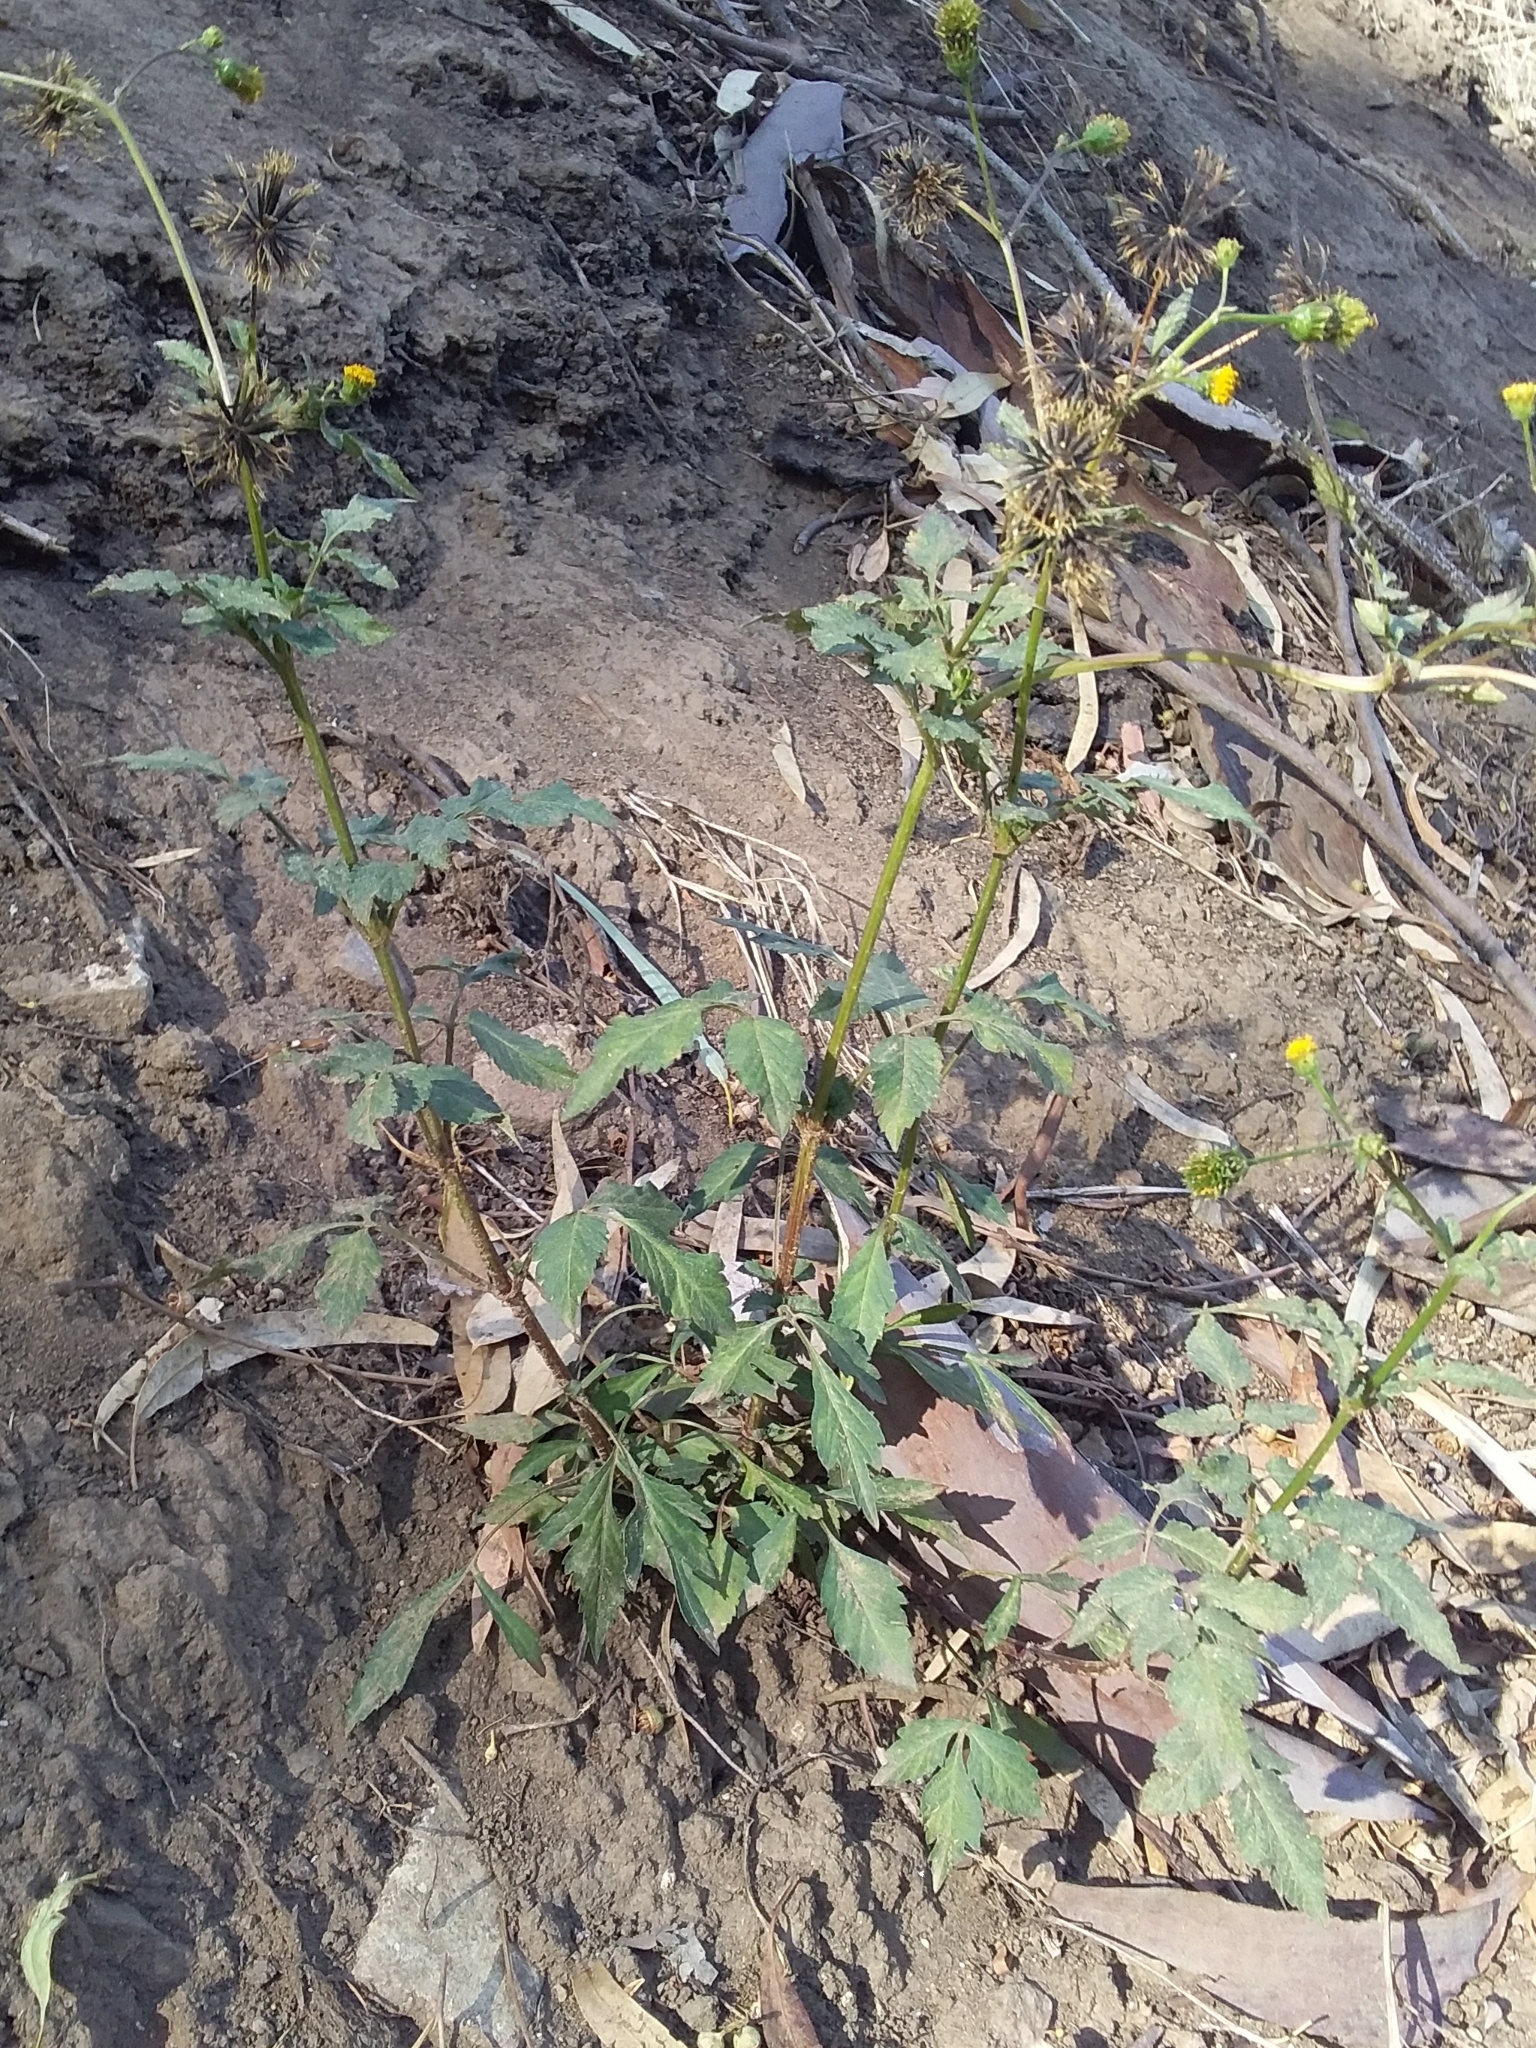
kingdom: Plantae
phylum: Tracheophyta
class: Magnoliopsida
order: Asterales
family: Asteraceae
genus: Bidens
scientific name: Bidens pilosa
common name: Black-jack
